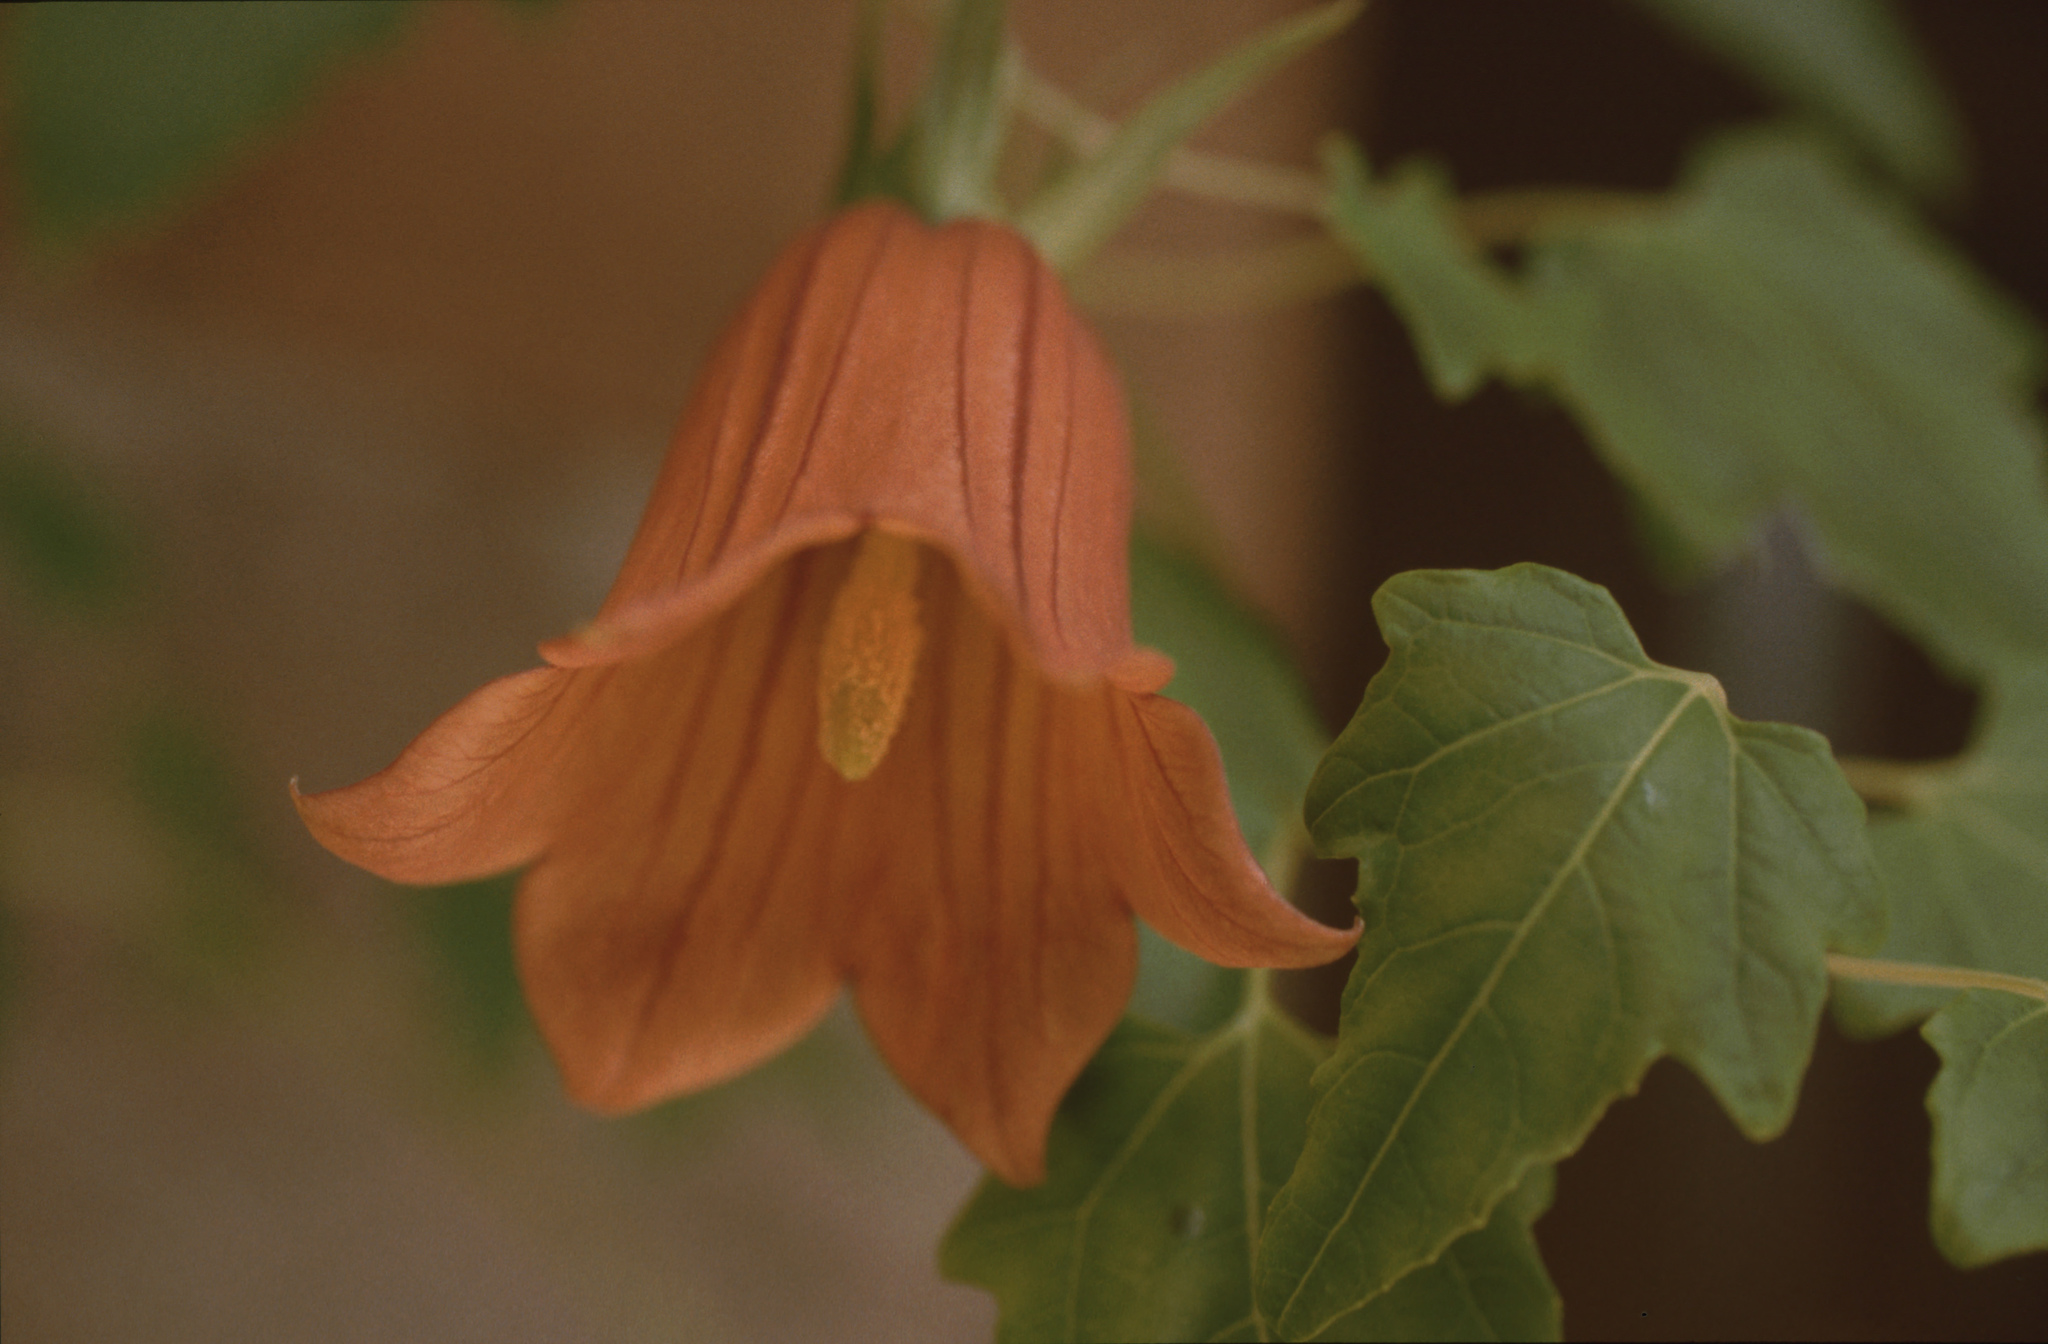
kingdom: Plantae
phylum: Tracheophyta
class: Magnoliopsida
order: Asterales
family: Campanulaceae
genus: Canarina
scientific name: Canarina canariensis
